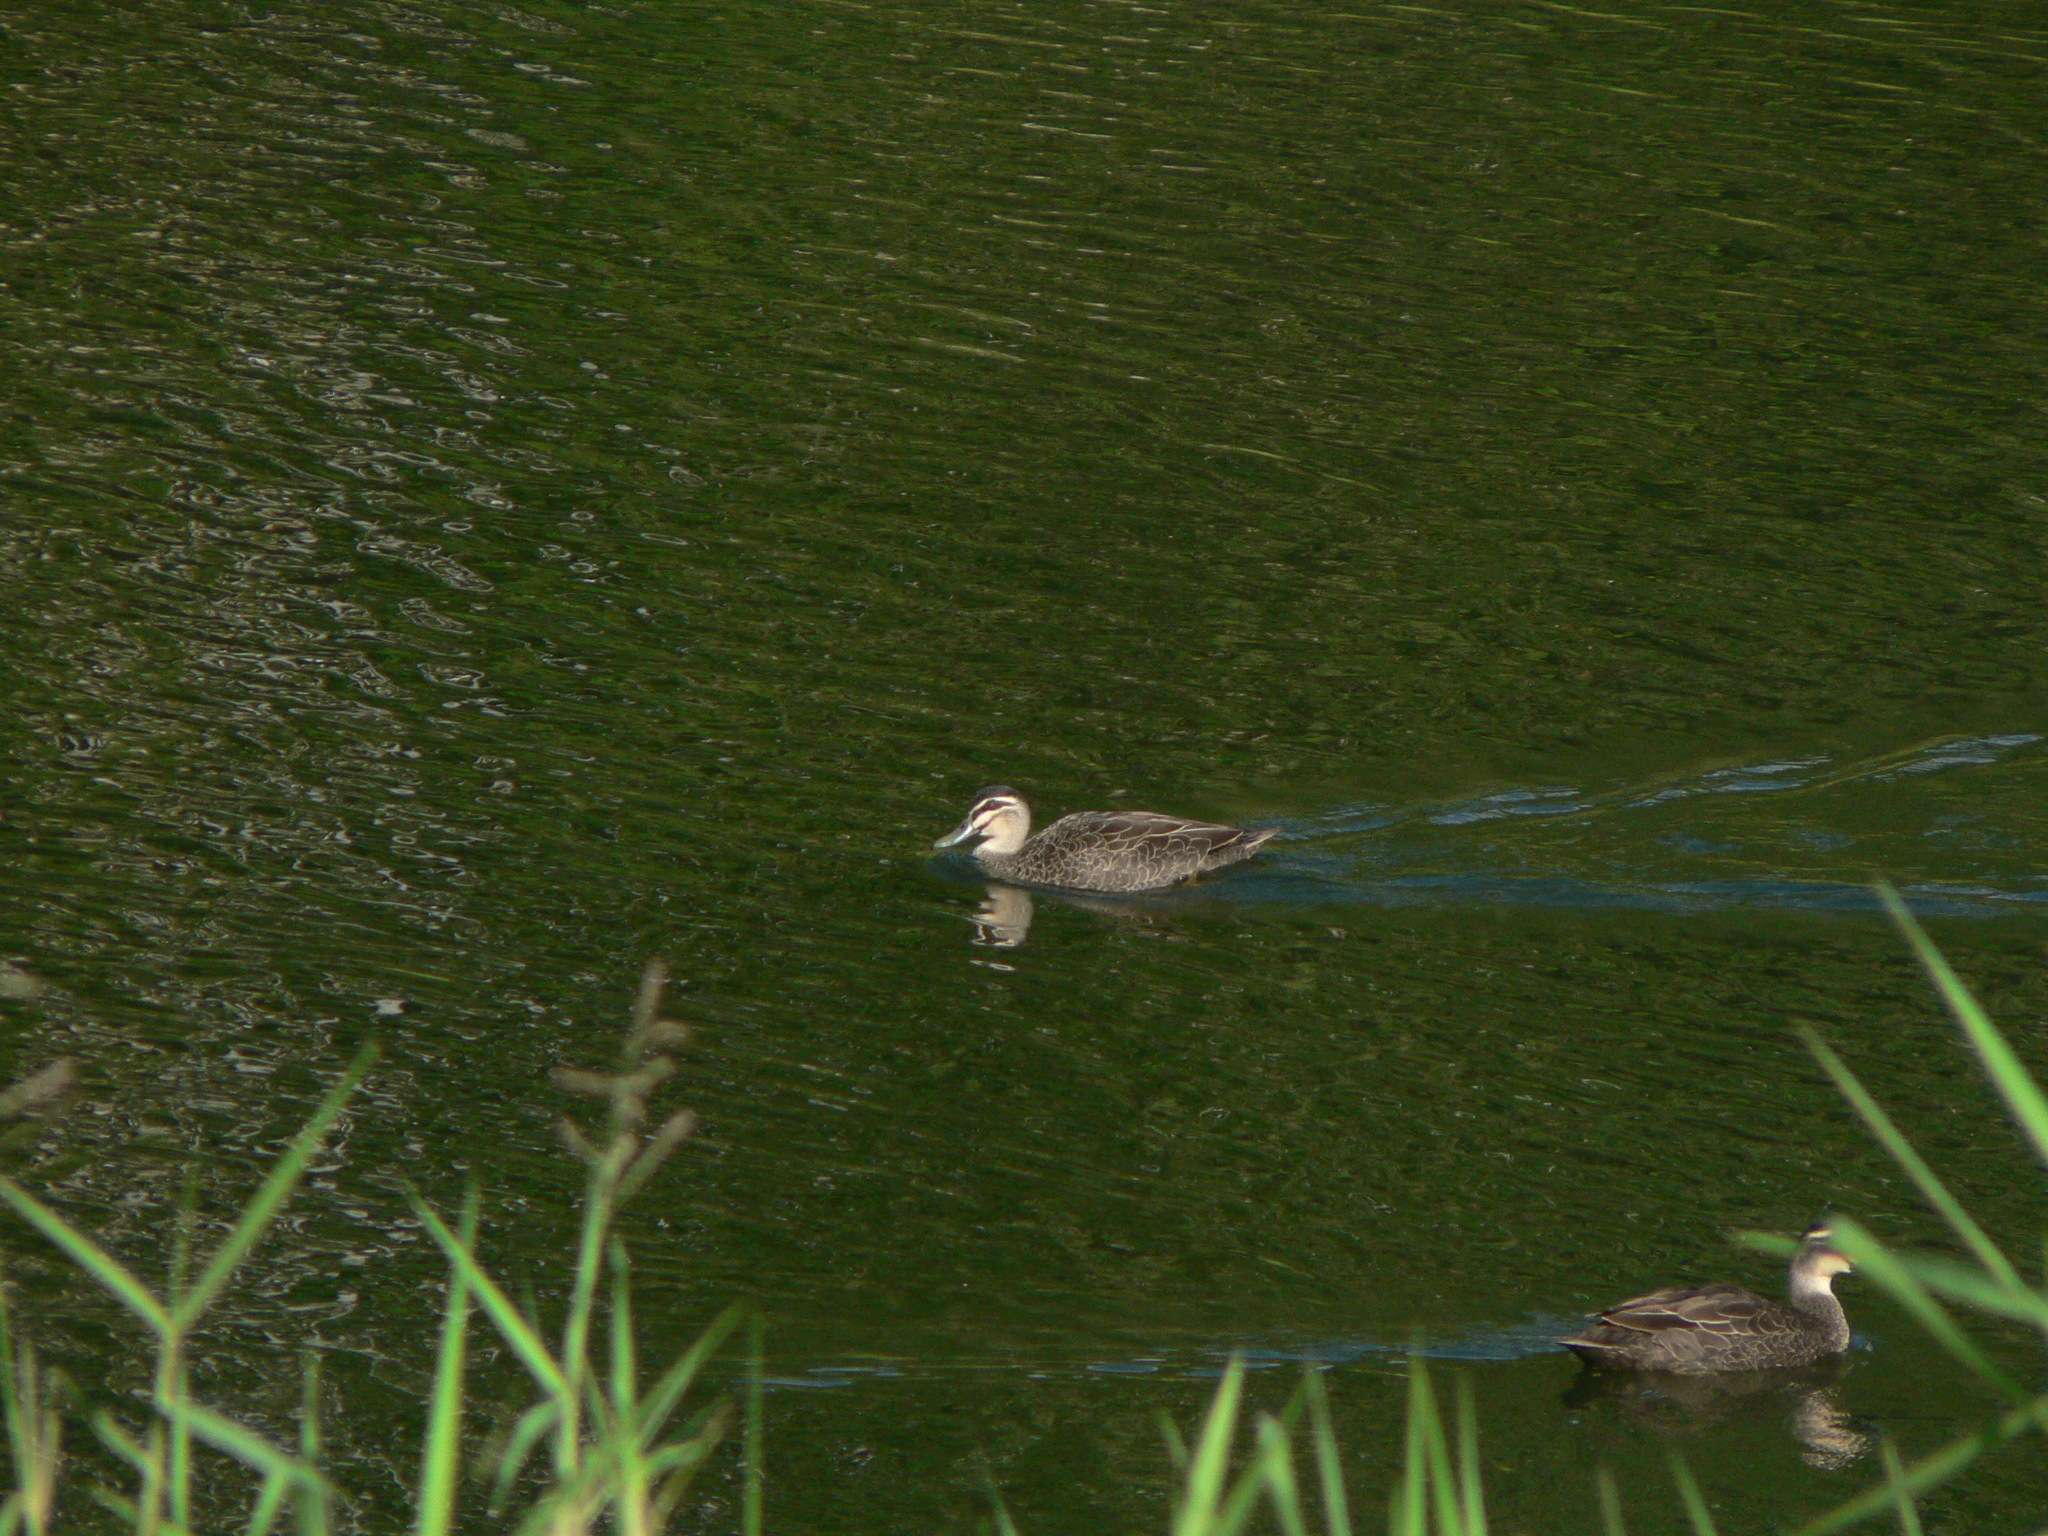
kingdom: Animalia
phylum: Chordata
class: Aves
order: Anseriformes
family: Anatidae
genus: Anas
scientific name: Anas superciliosa
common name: Pacific black duck
